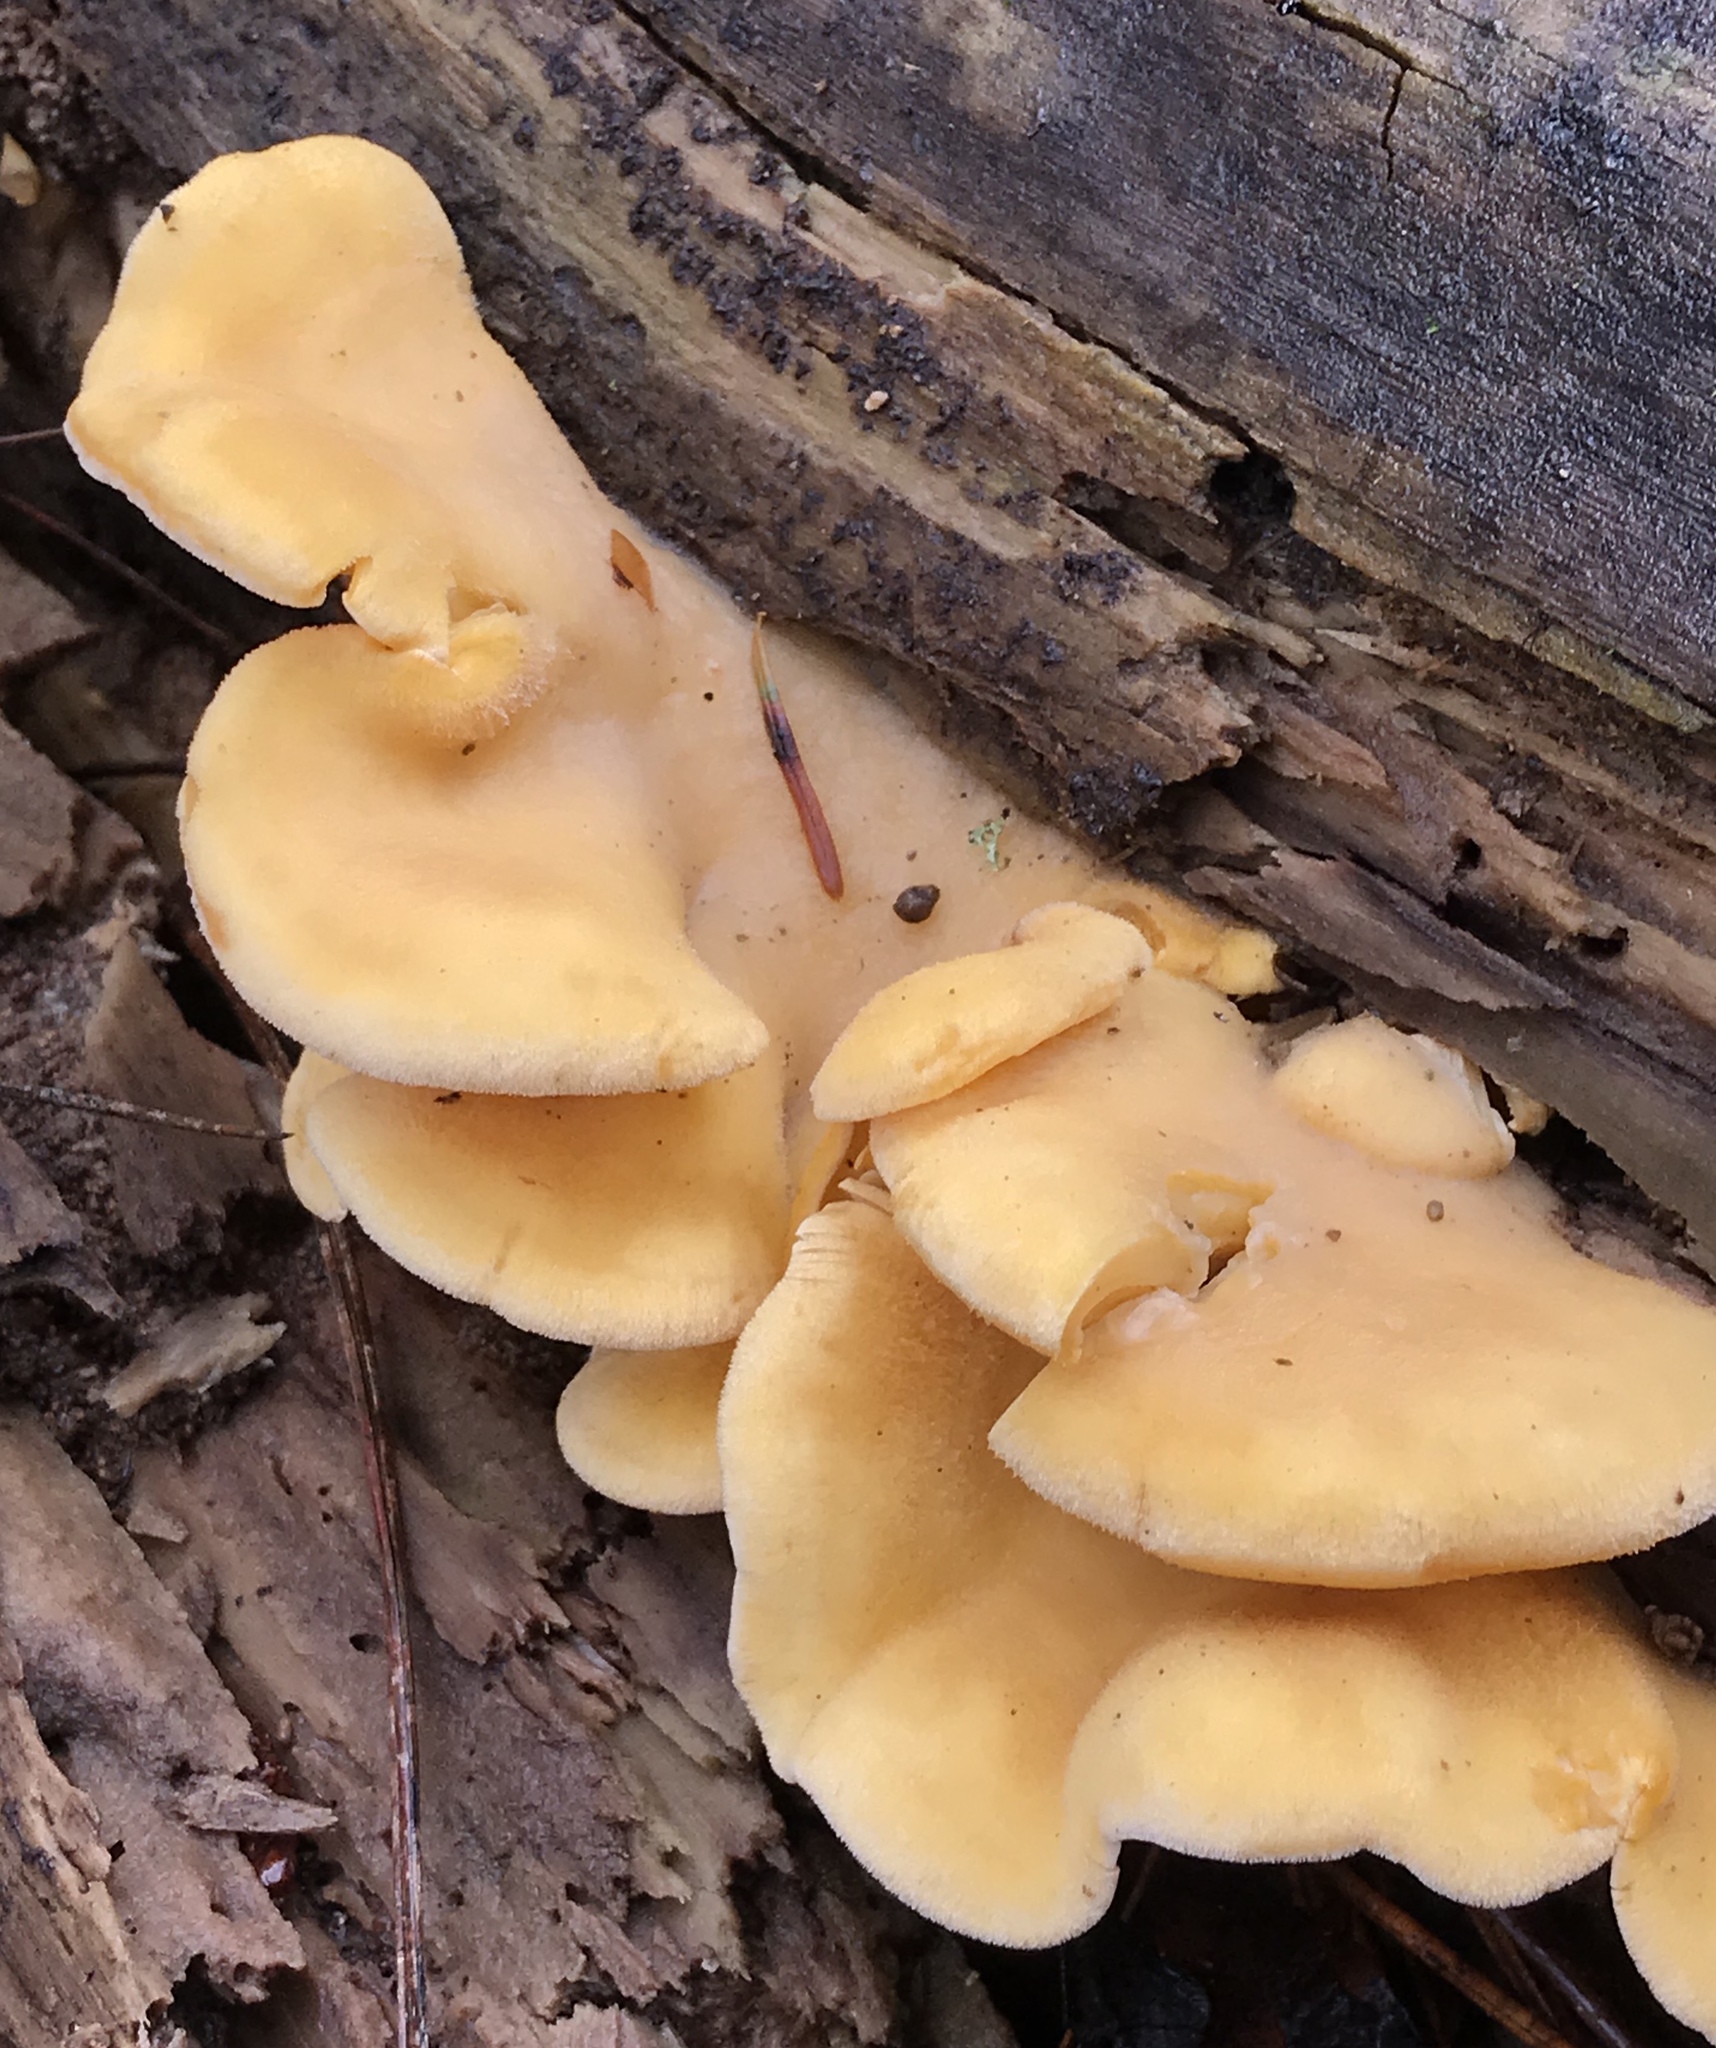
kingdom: Fungi
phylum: Basidiomycota
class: Agaricomycetes
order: Agaricales
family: Phyllotopsidaceae
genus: Phyllotopsis
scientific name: Phyllotopsis nidulans
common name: Orange mock oyster
